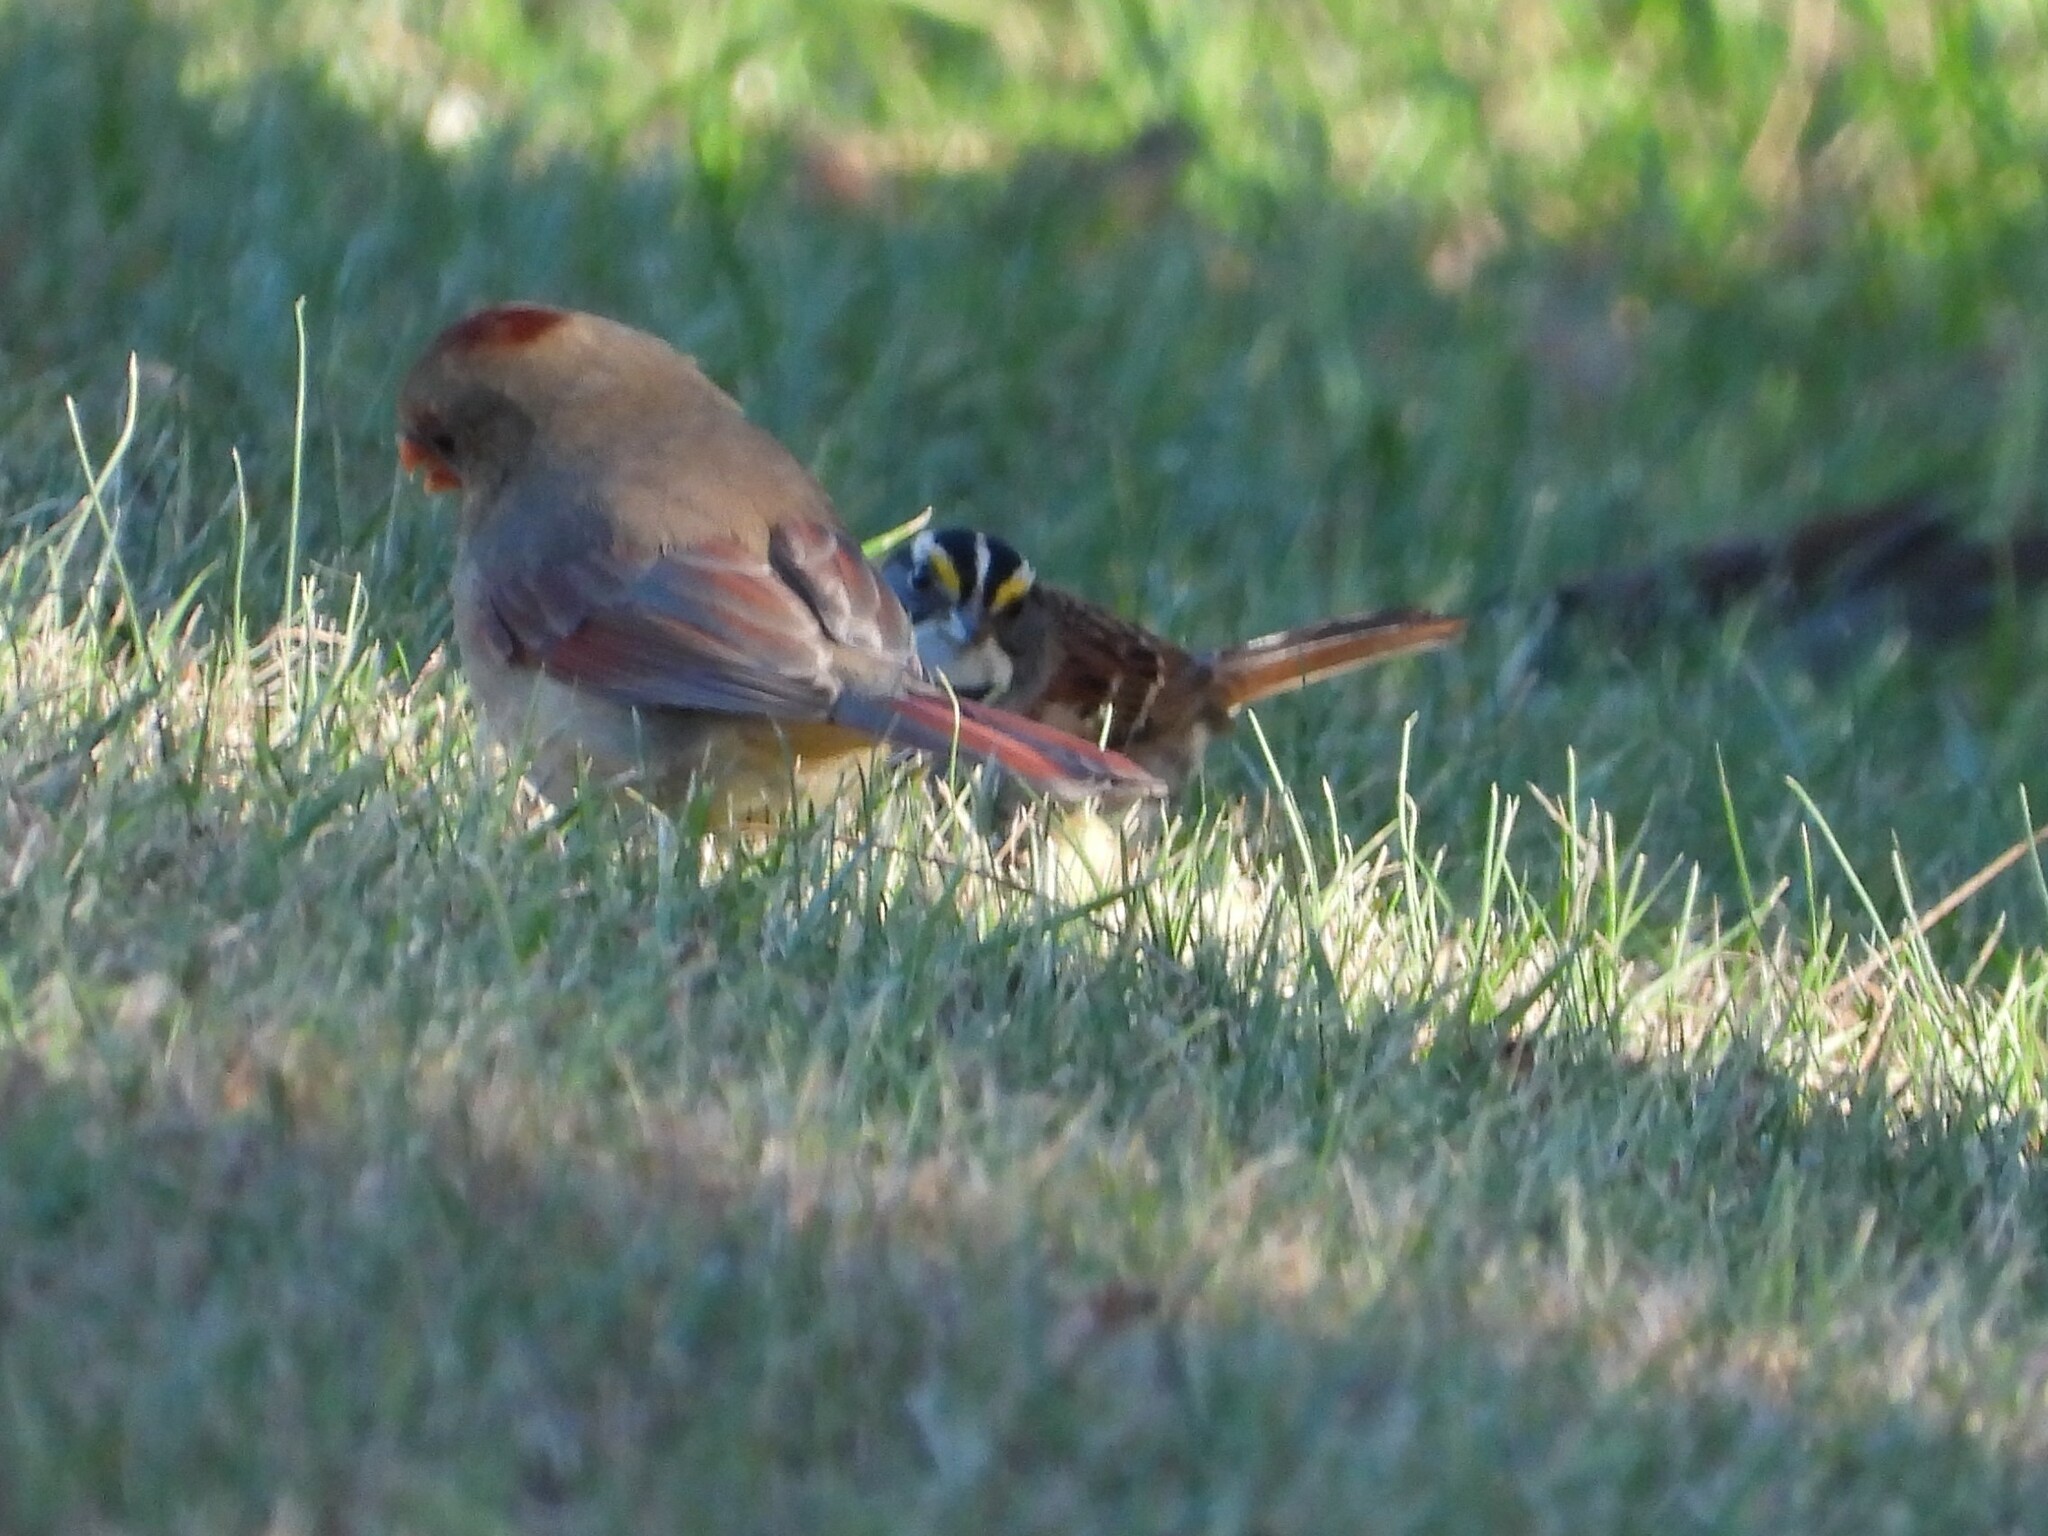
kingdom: Animalia
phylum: Chordata
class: Aves
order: Passeriformes
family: Passerellidae
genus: Zonotrichia
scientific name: Zonotrichia albicollis
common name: White-throated sparrow
